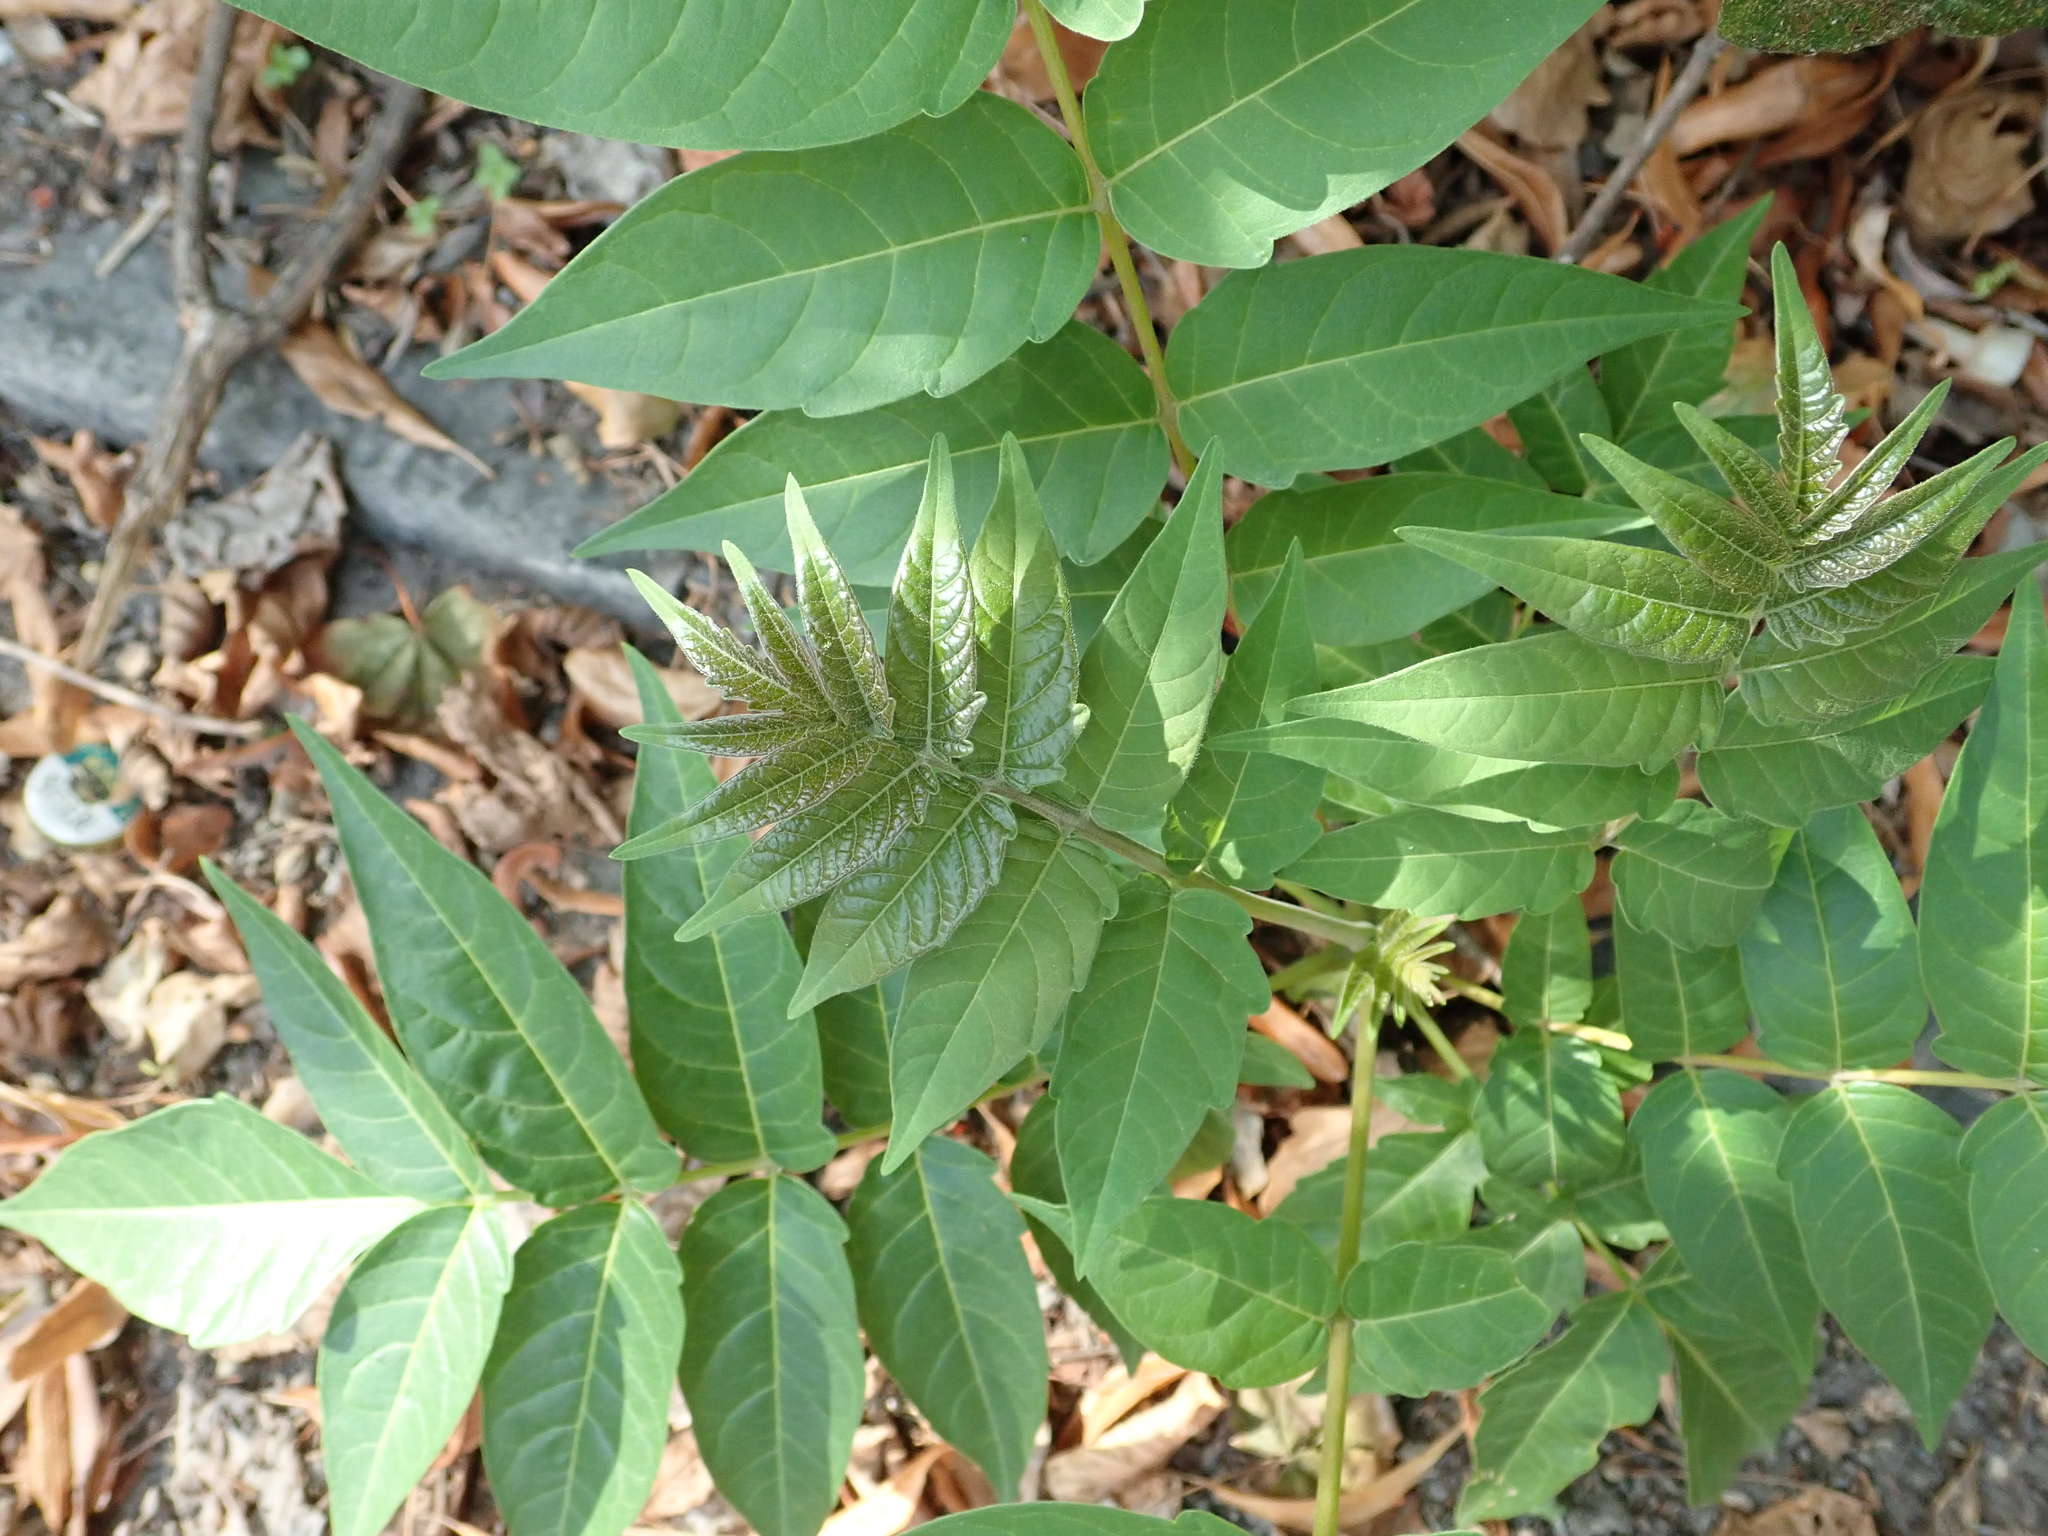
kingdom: Plantae
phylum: Tracheophyta
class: Magnoliopsida
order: Sapindales
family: Simaroubaceae
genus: Ailanthus
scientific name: Ailanthus altissima
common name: Tree-of-heaven
